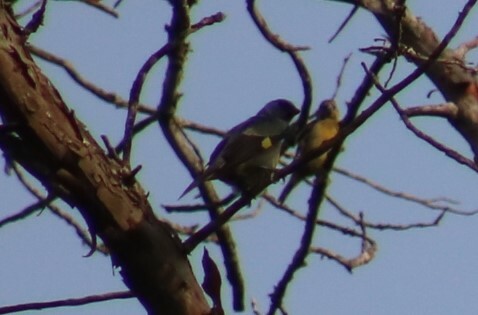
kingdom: Animalia
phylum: Chordata
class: Aves
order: Passeriformes
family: Thraupidae
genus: Thraupis
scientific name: Thraupis abbas
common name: Yellow-winged tanager
